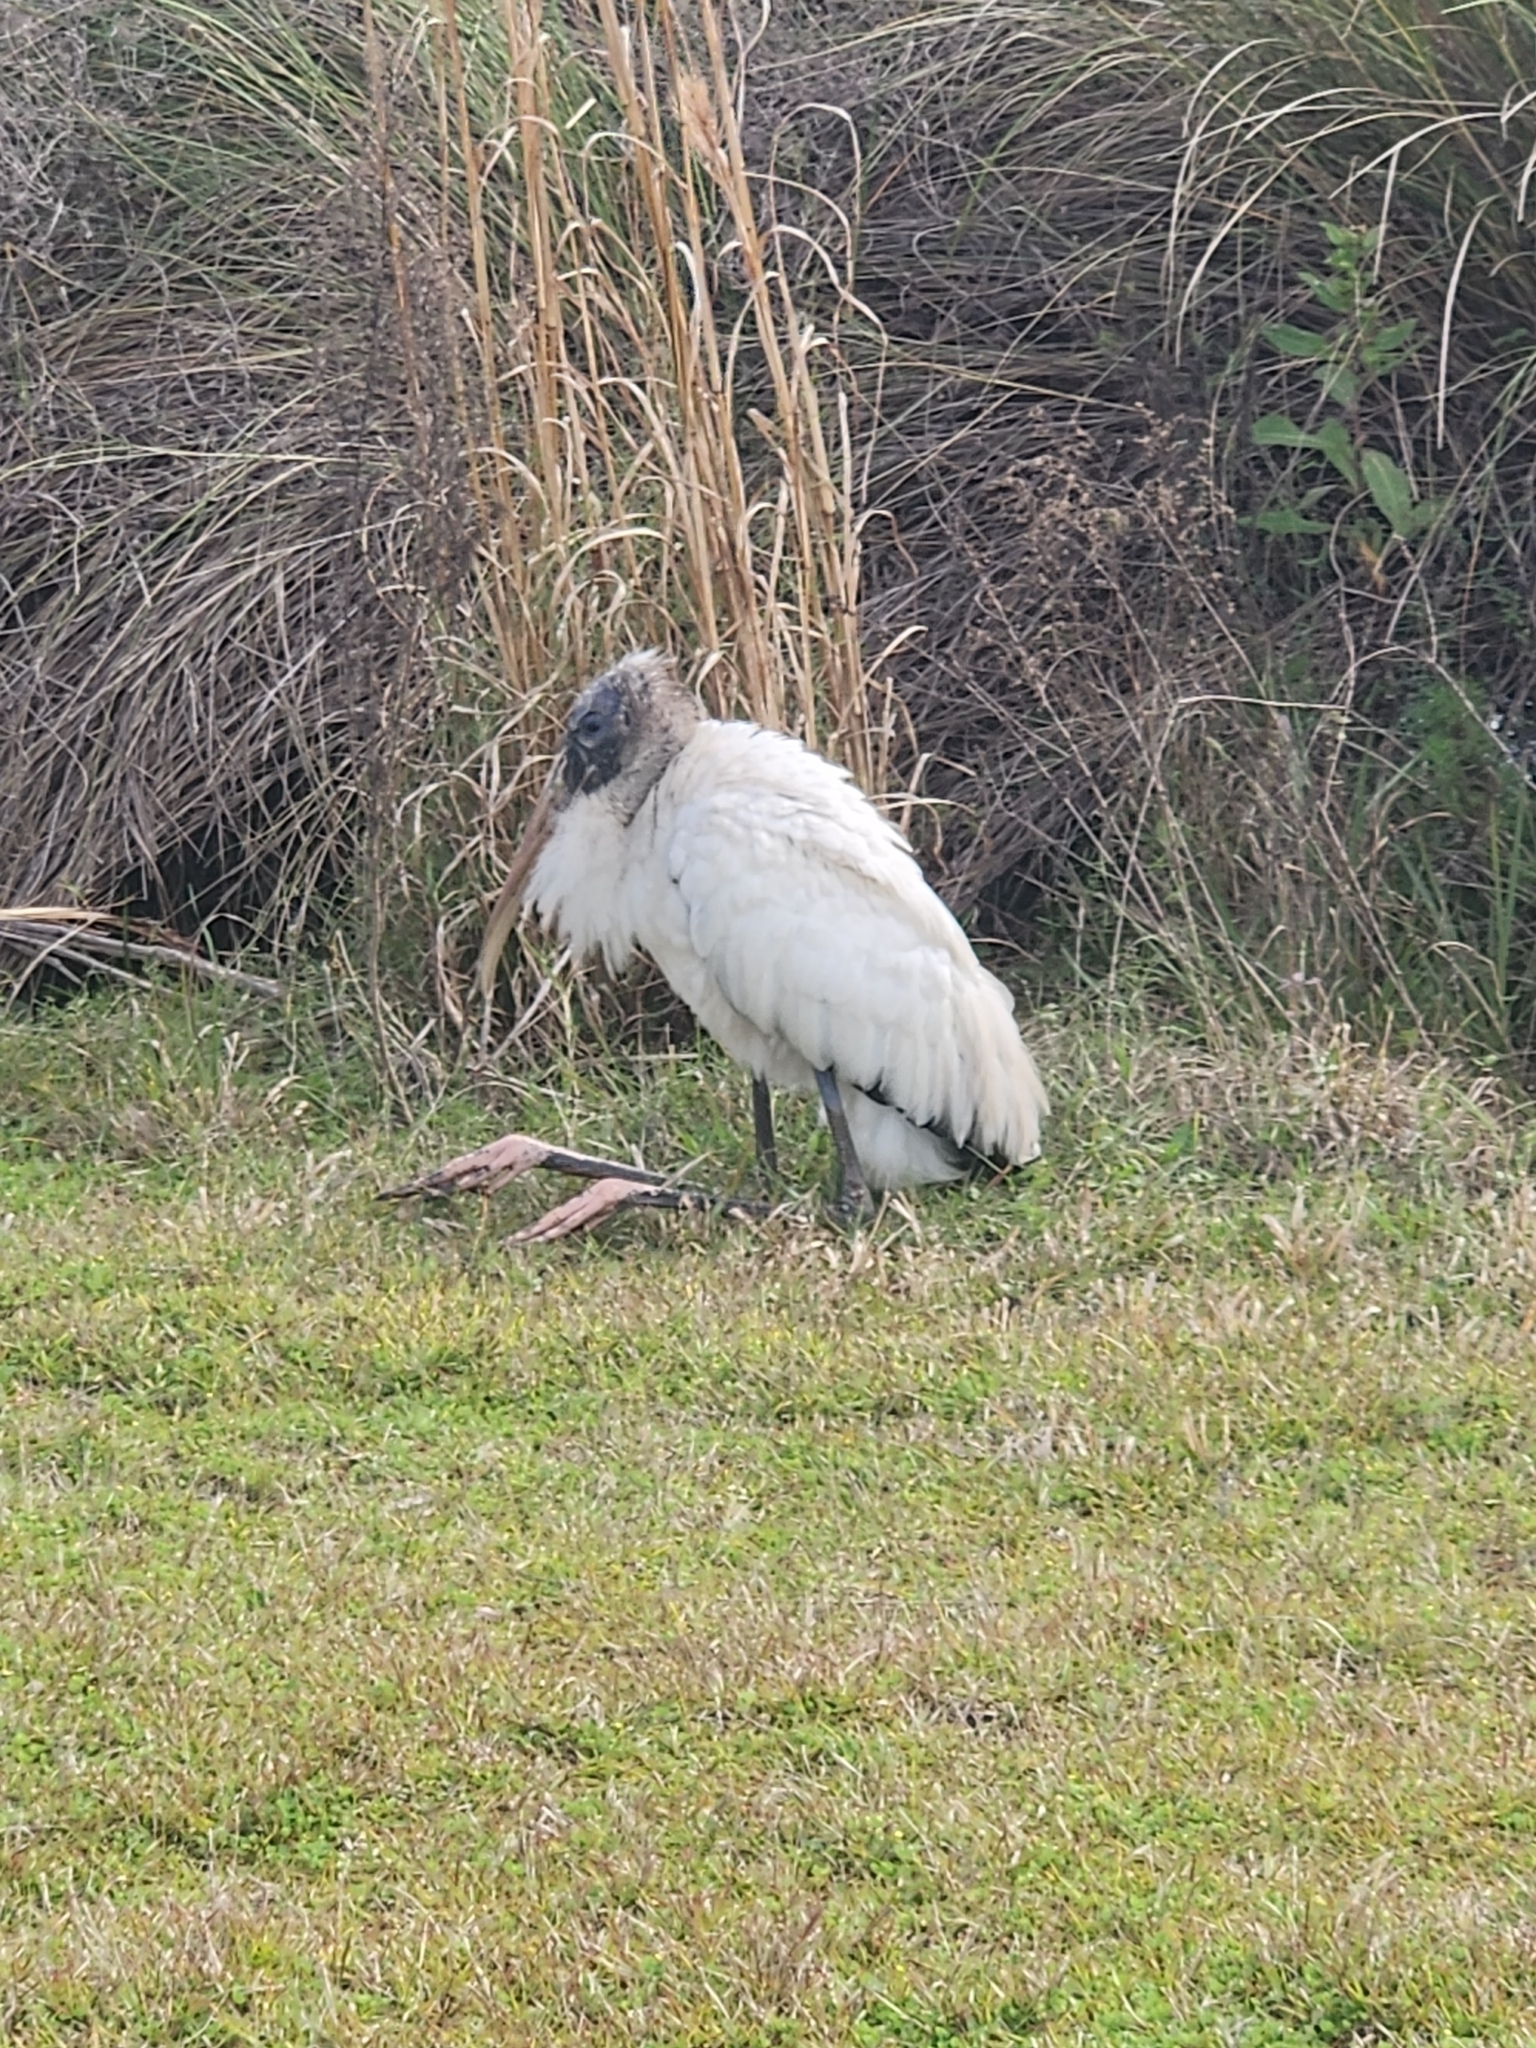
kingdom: Animalia
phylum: Chordata
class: Aves
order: Ciconiiformes
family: Ciconiidae
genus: Mycteria
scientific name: Mycteria americana
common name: Wood stork
